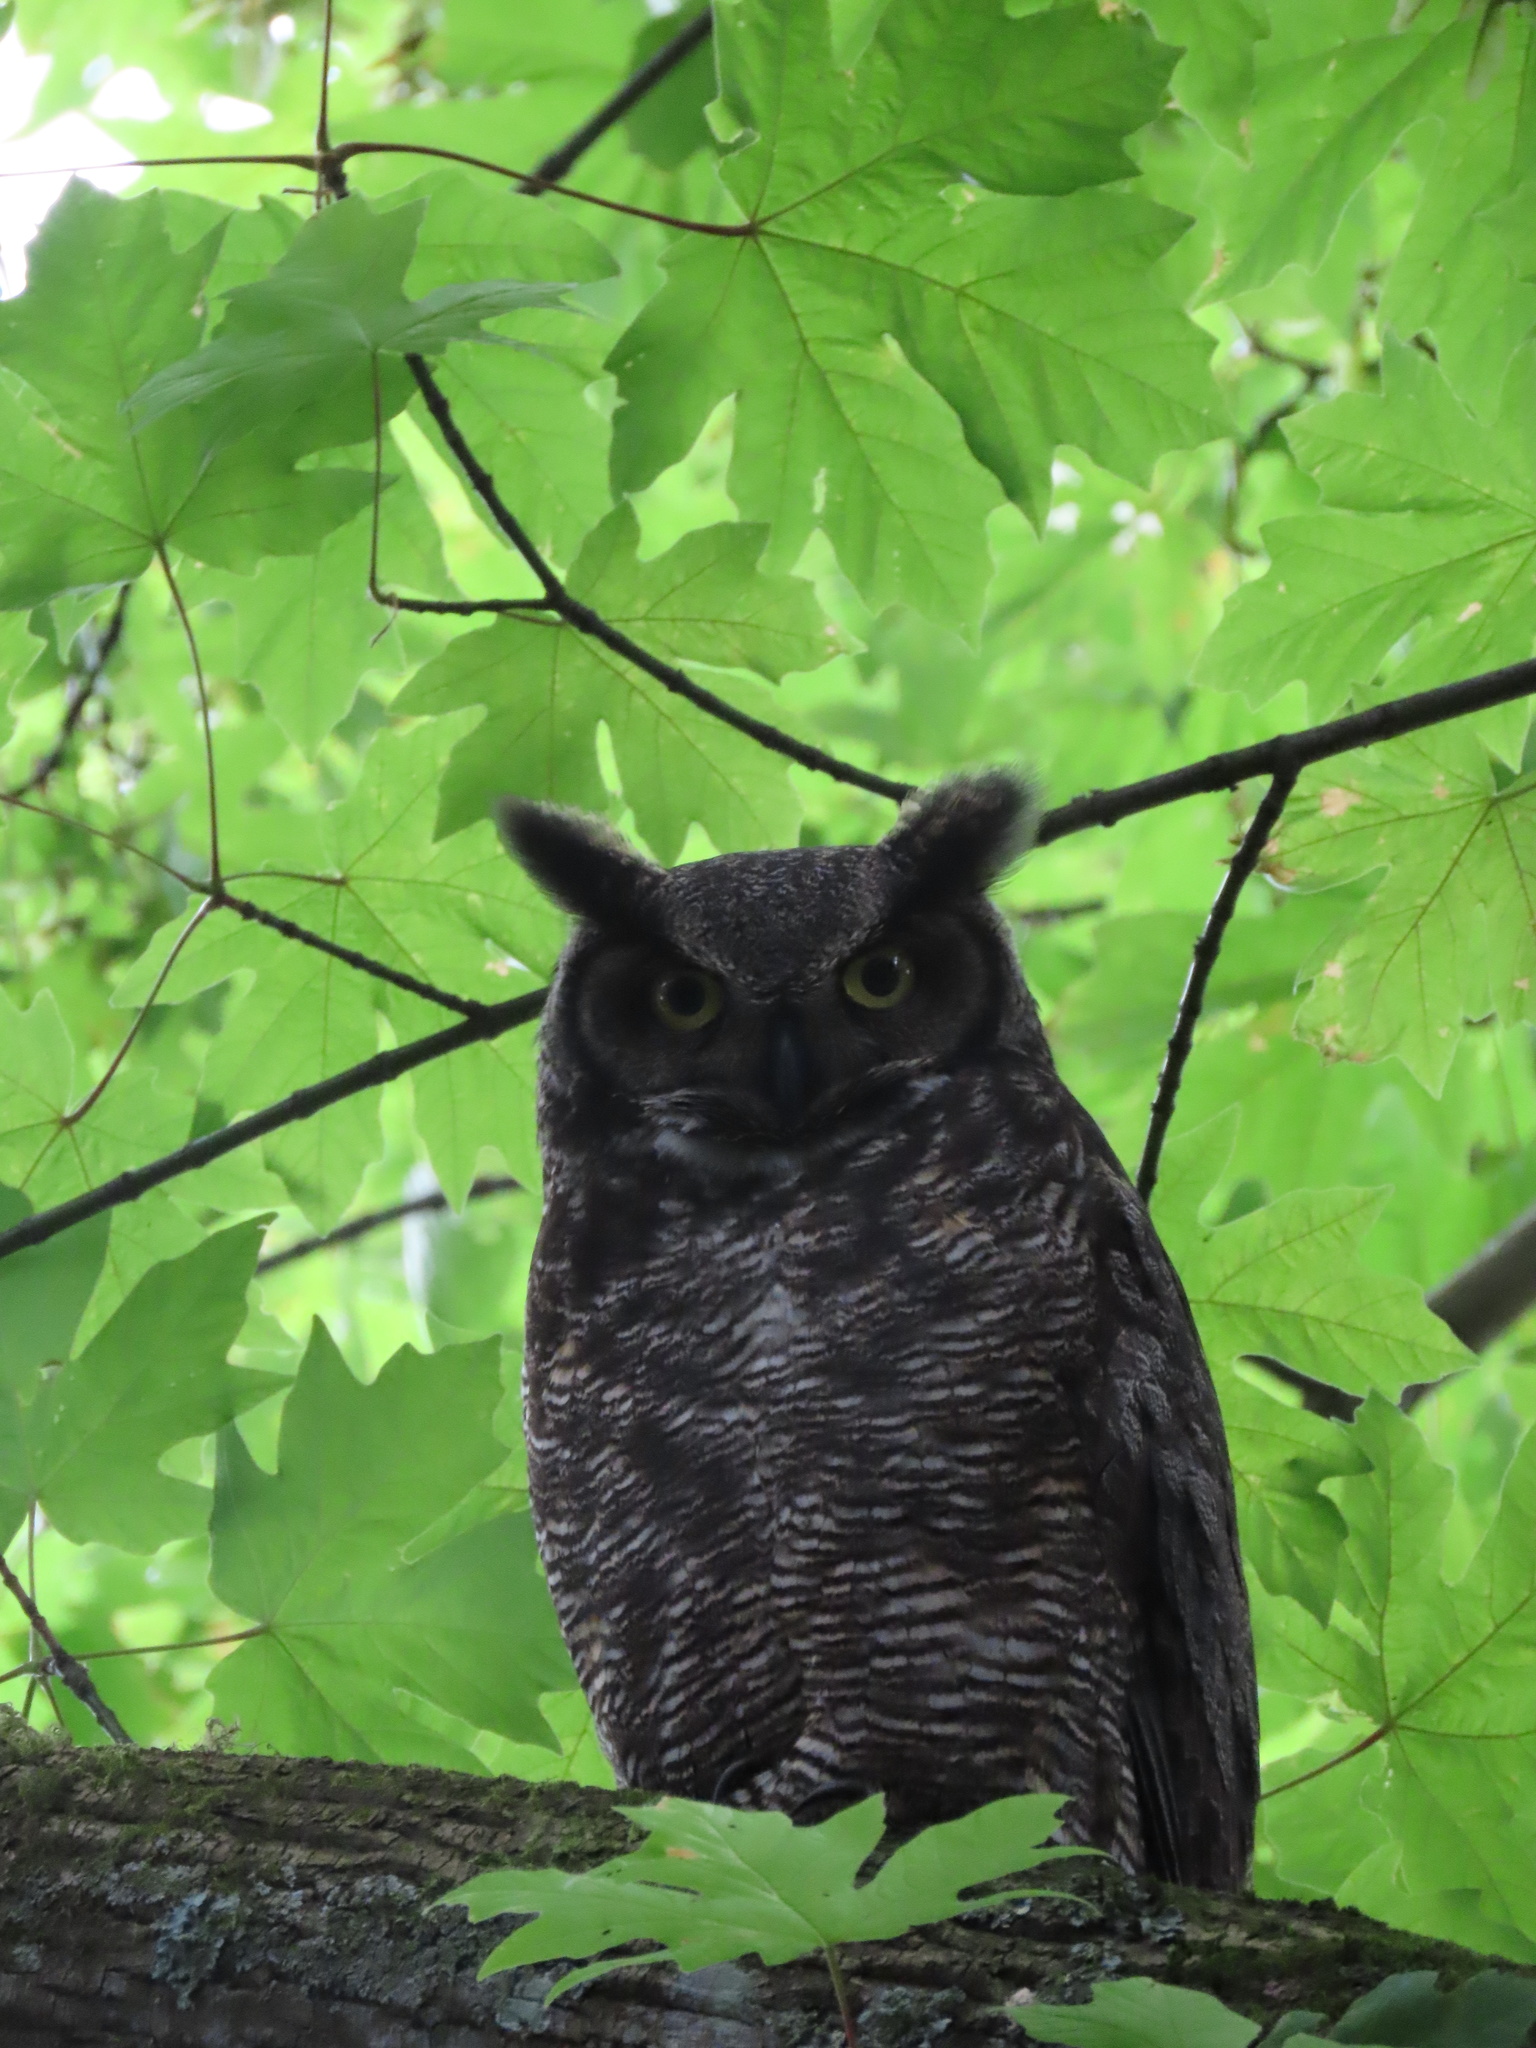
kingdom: Animalia
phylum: Chordata
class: Aves
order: Strigiformes
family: Strigidae
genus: Bubo
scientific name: Bubo virginianus
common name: Great horned owl
